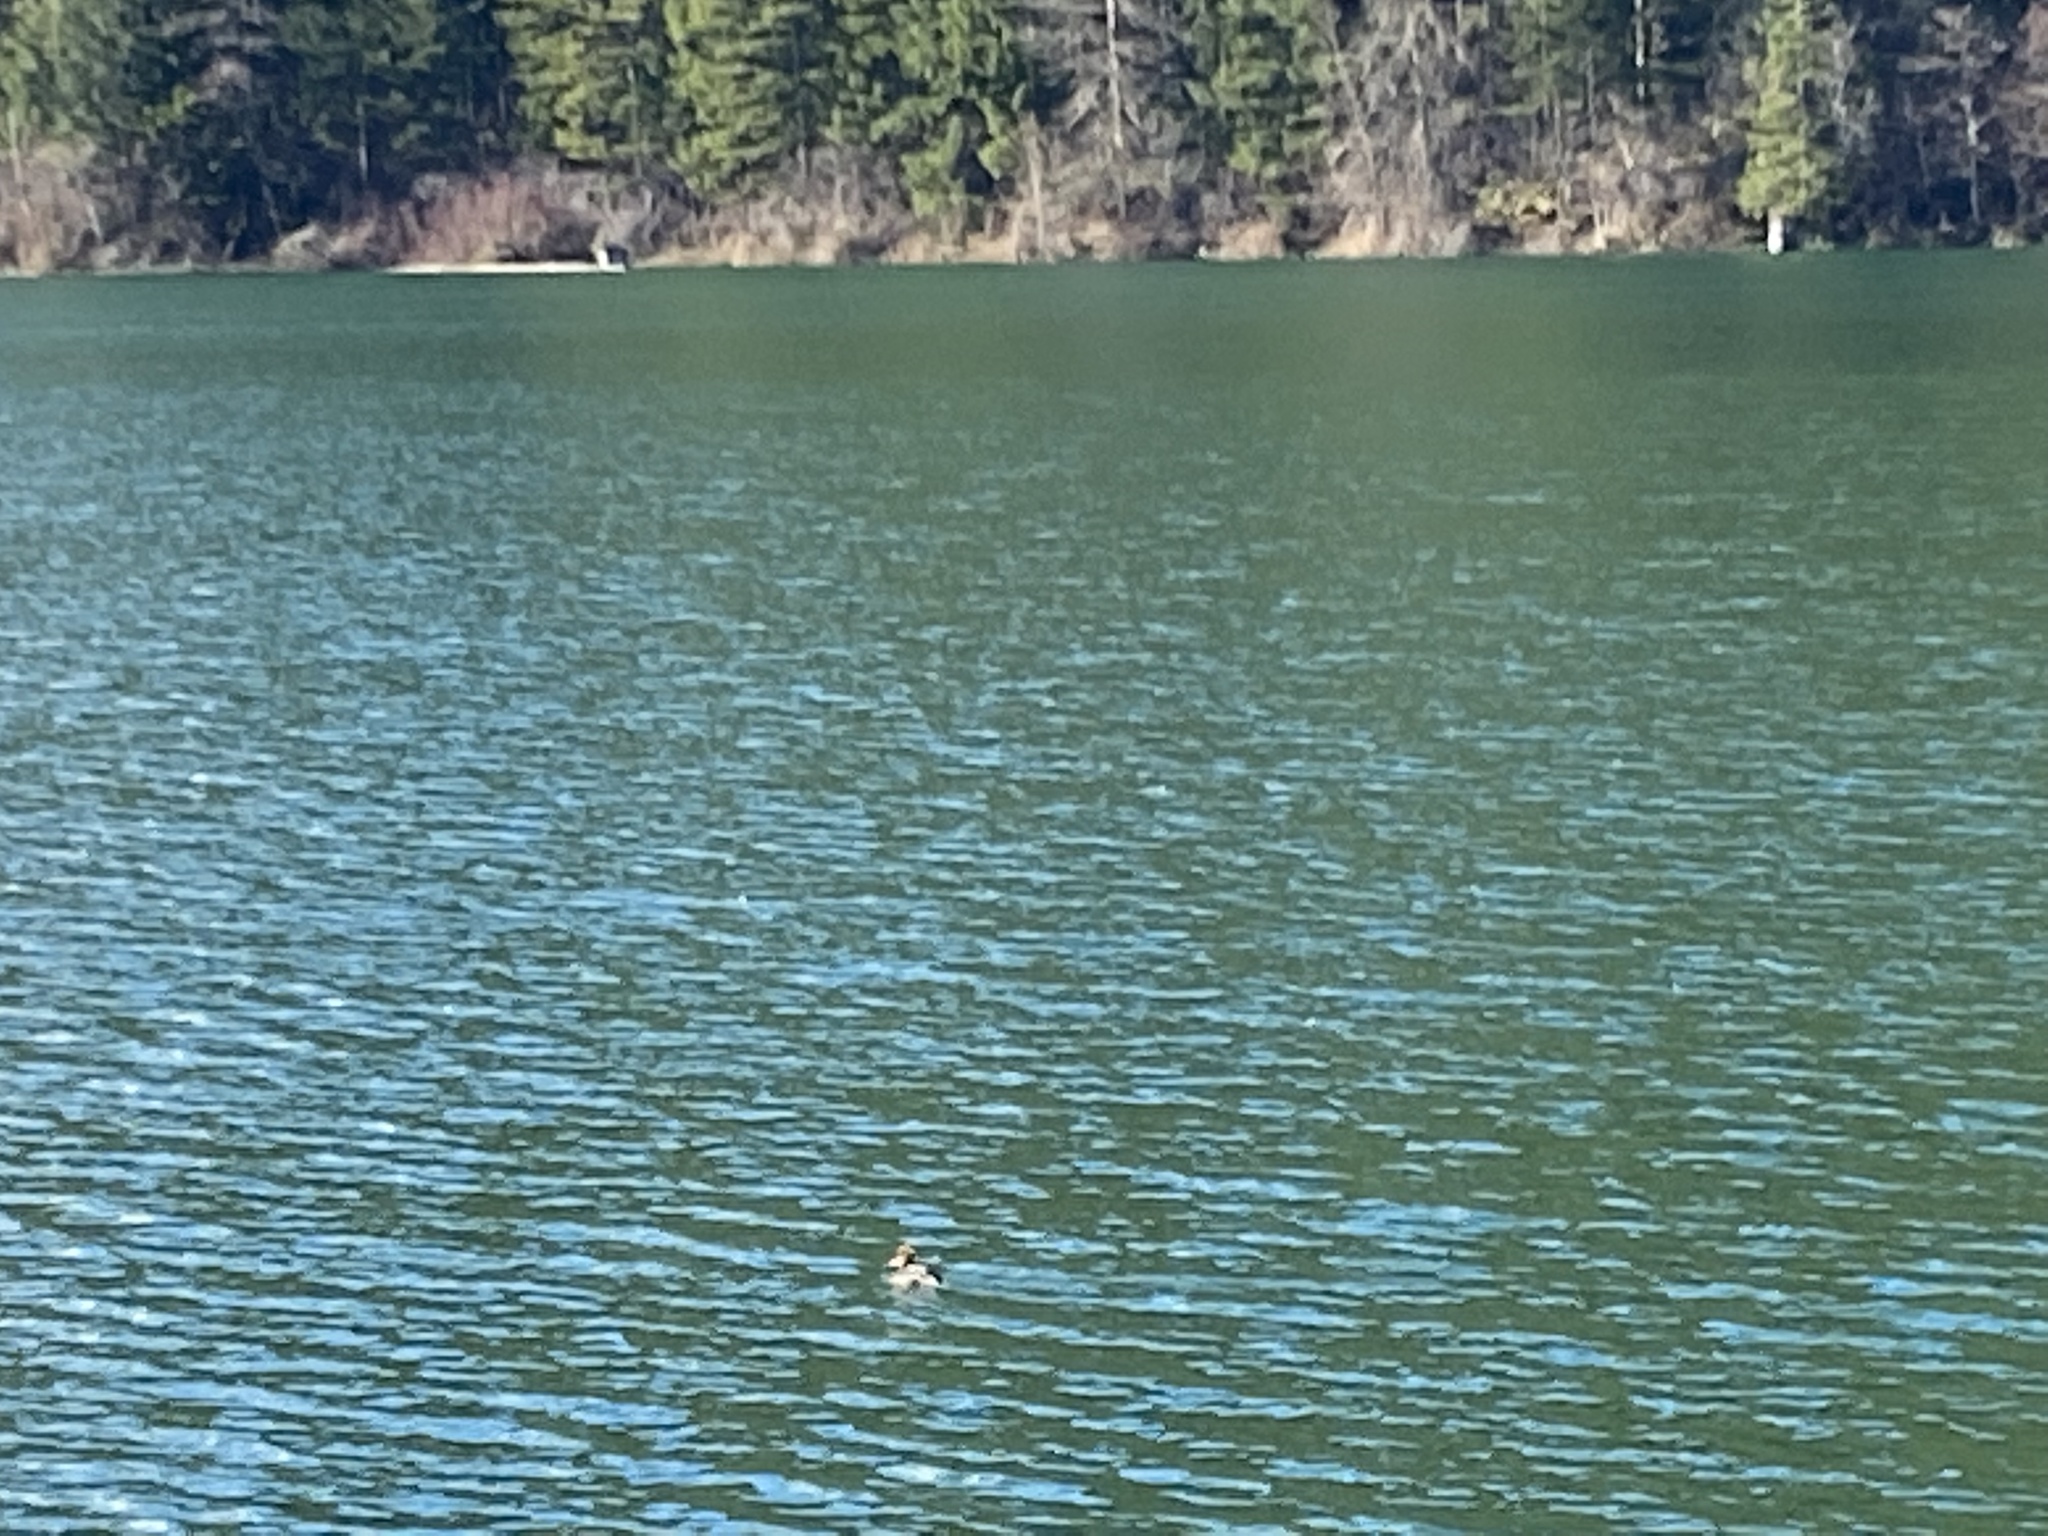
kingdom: Animalia
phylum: Chordata
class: Aves
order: Anseriformes
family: Anatidae
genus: Lophodytes
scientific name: Lophodytes cucullatus
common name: Hooded merganser
